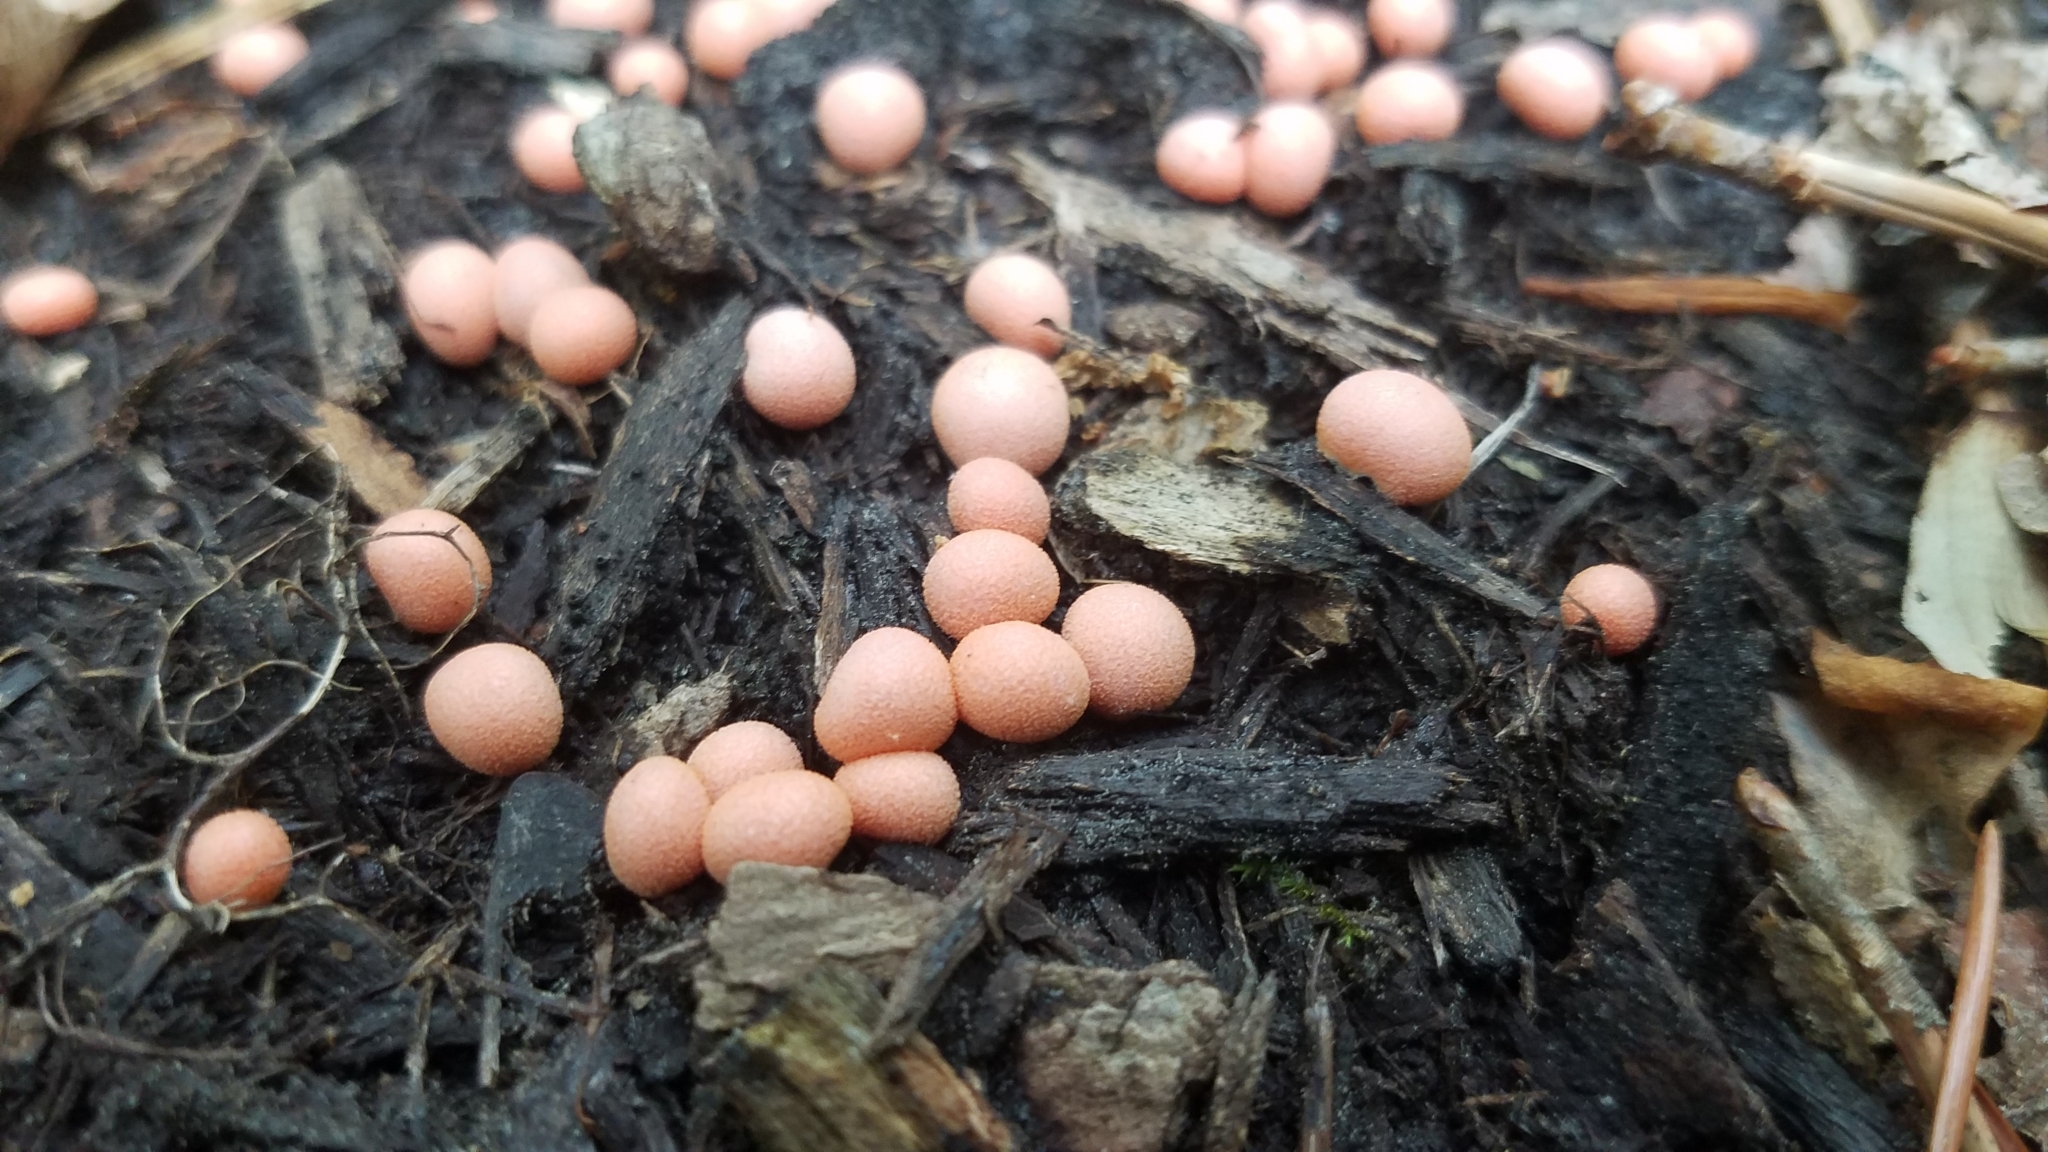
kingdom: Protozoa
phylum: Mycetozoa
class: Myxomycetes
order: Cribrariales
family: Tubiferaceae
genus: Lycogala
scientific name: Lycogala epidendrum
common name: Wolf's milk
